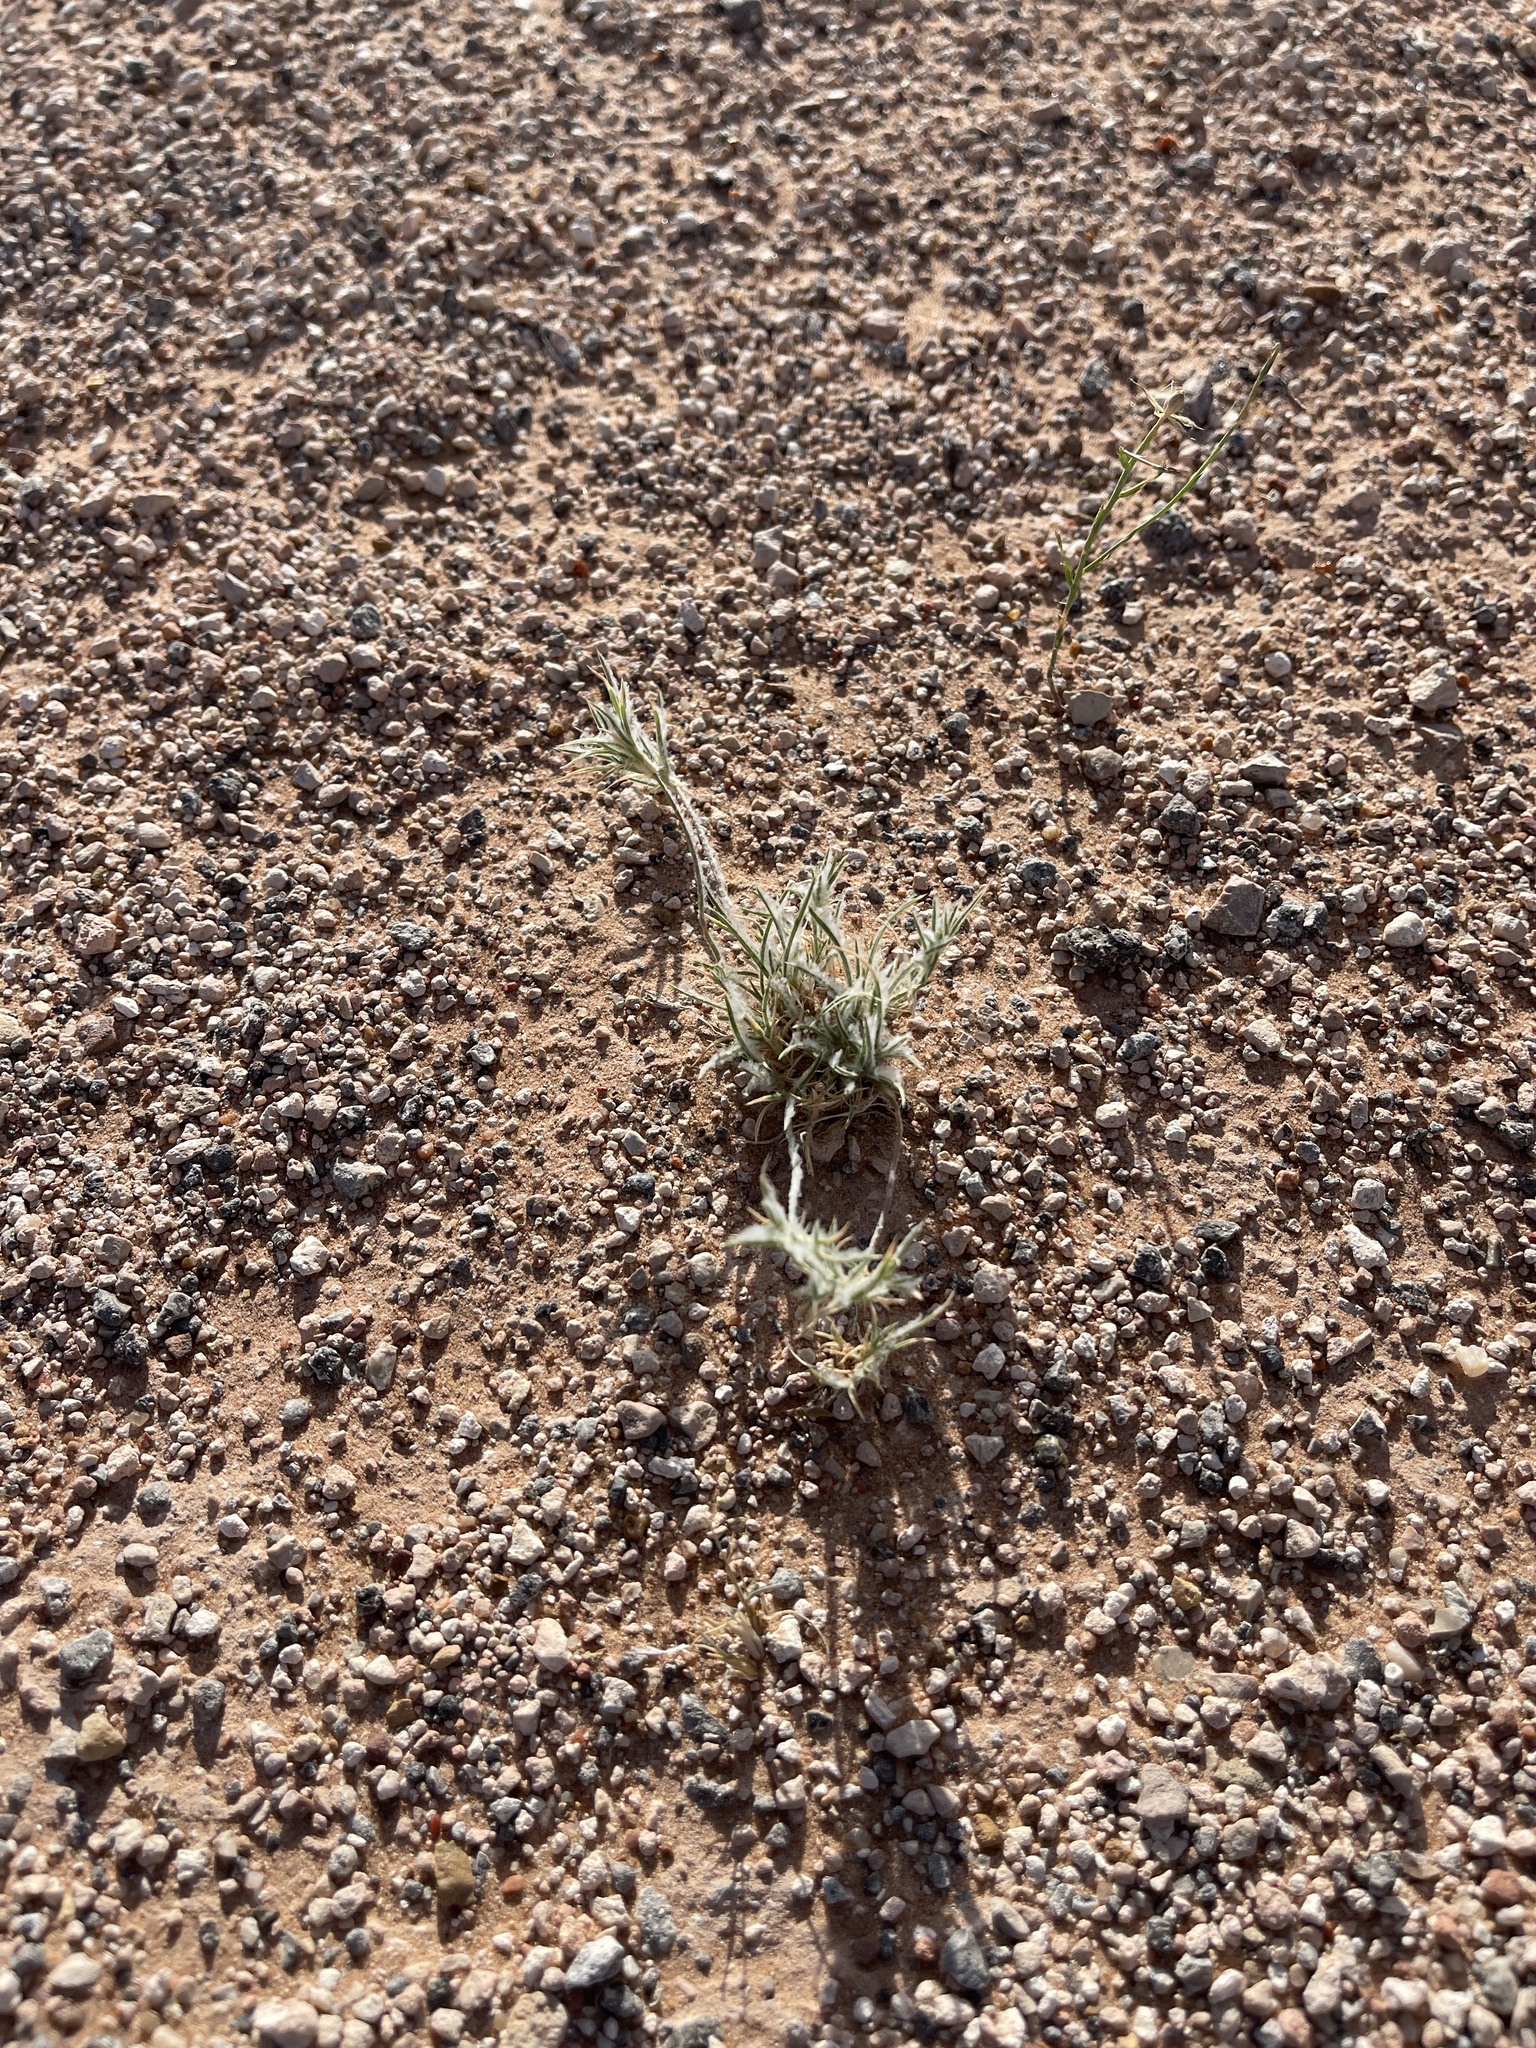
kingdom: Plantae
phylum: Tracheophyta
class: Liliopsida
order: Poales
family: Poaceae
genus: Munroa
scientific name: Munroa squarrosa
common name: False buffalo grass
